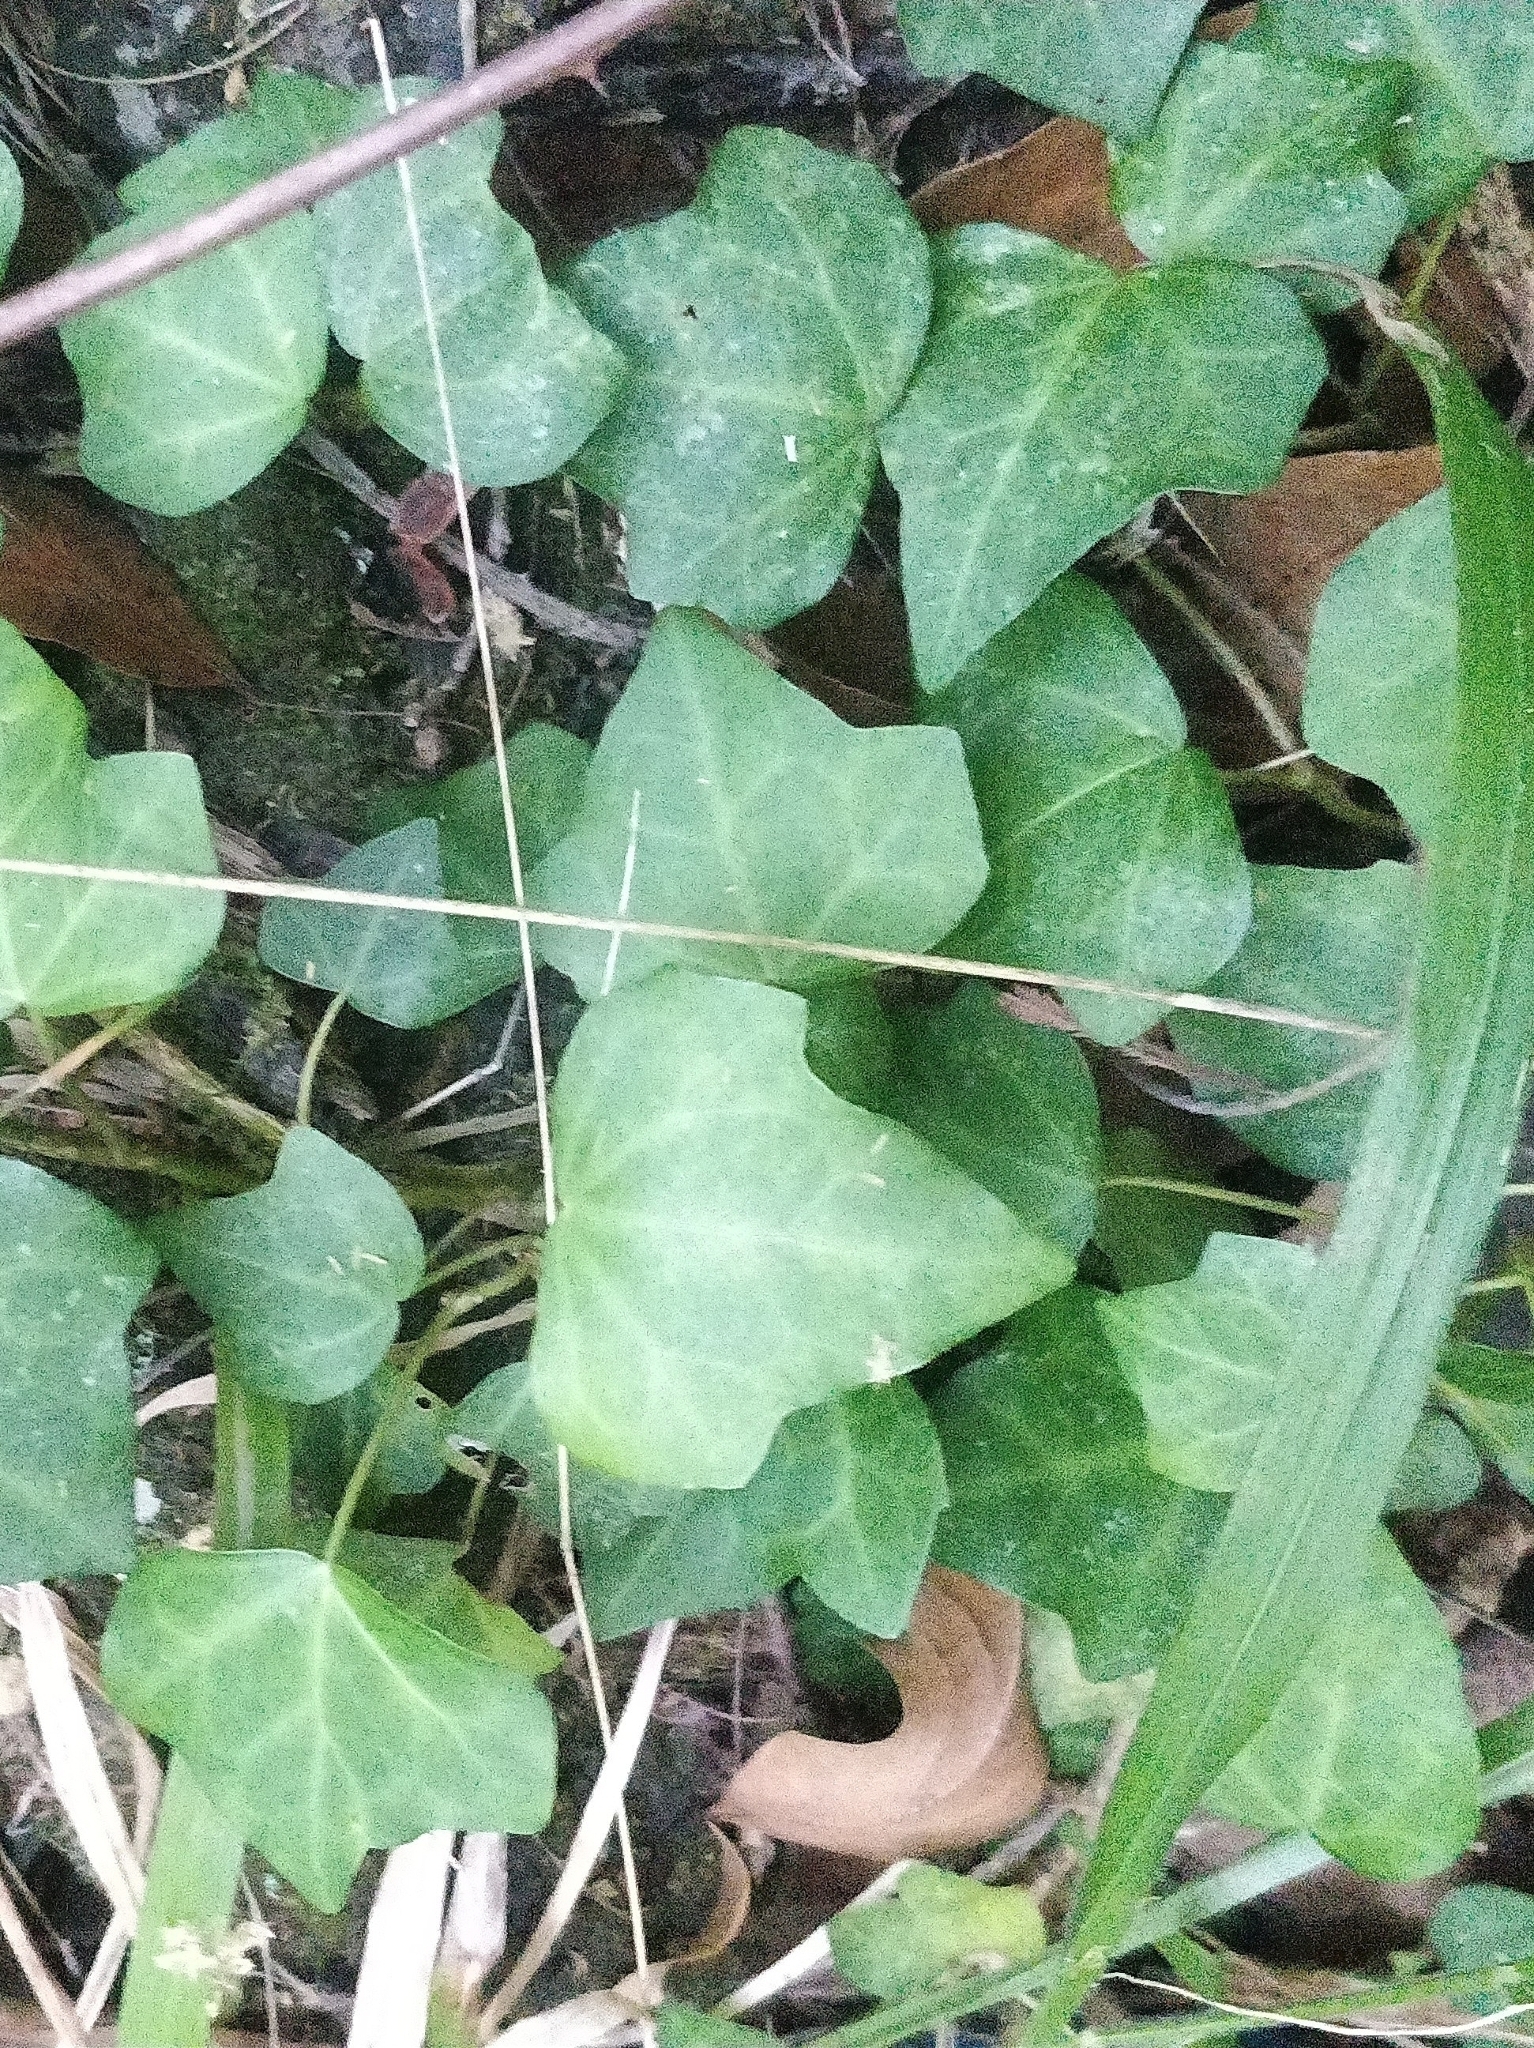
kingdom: Plantae
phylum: Tracheophyta
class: Magnoliopsida
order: Apiales
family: Araliaceae
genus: Hedera
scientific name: Hedera maderensis
